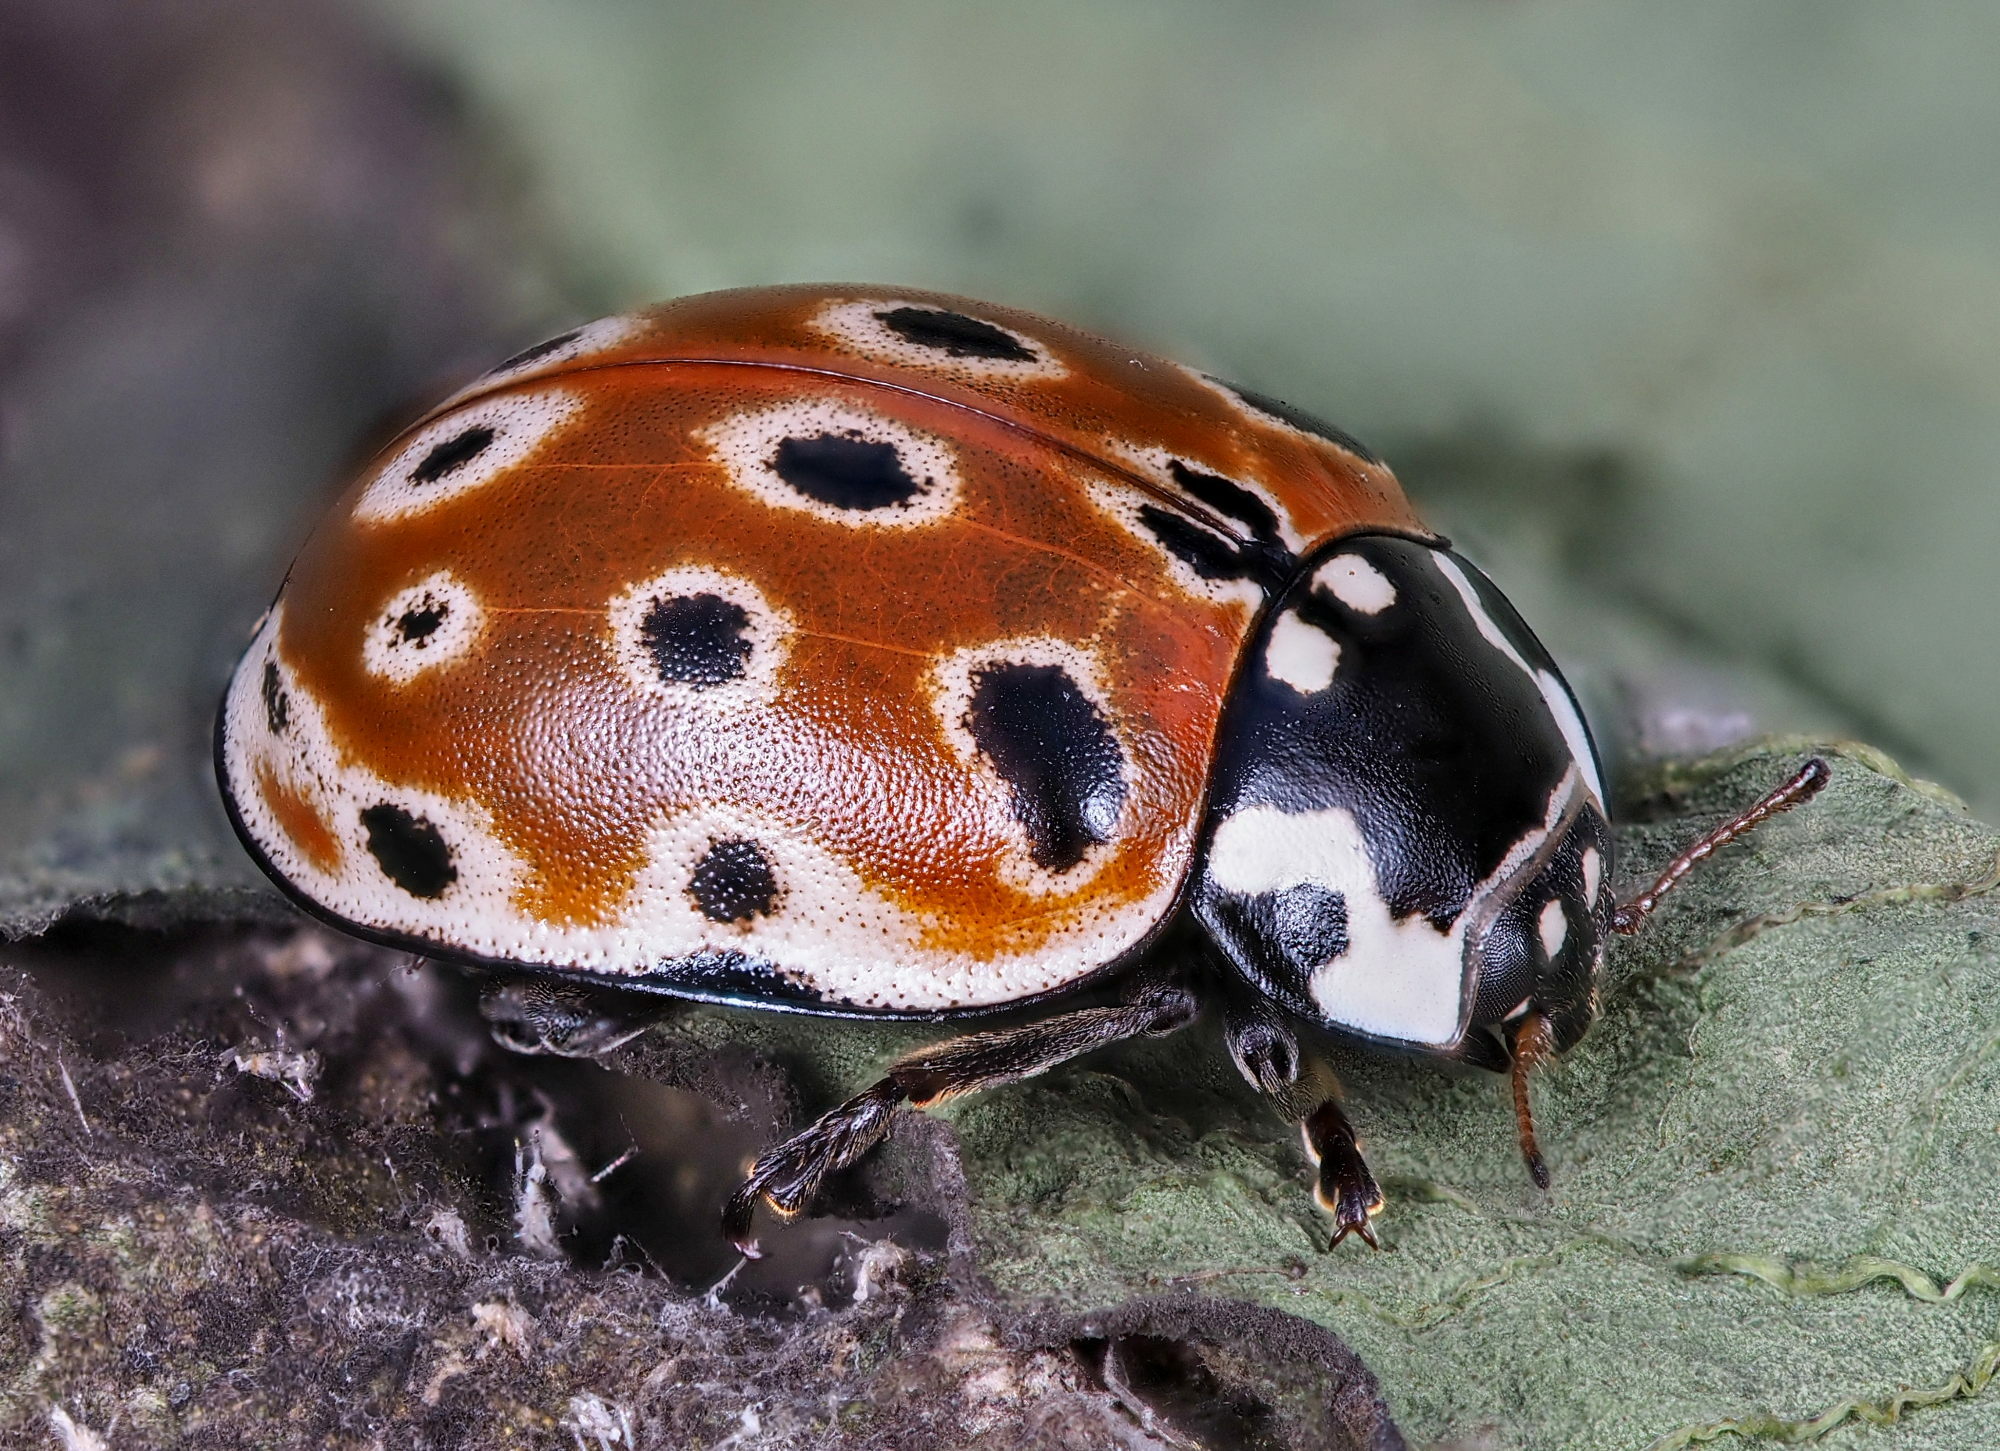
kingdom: Animalia
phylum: Arthropoda
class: Insecta
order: Coleoptera
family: Coccinellidae
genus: Anatis
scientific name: Anatis ocellata
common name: Eyed ladybird
